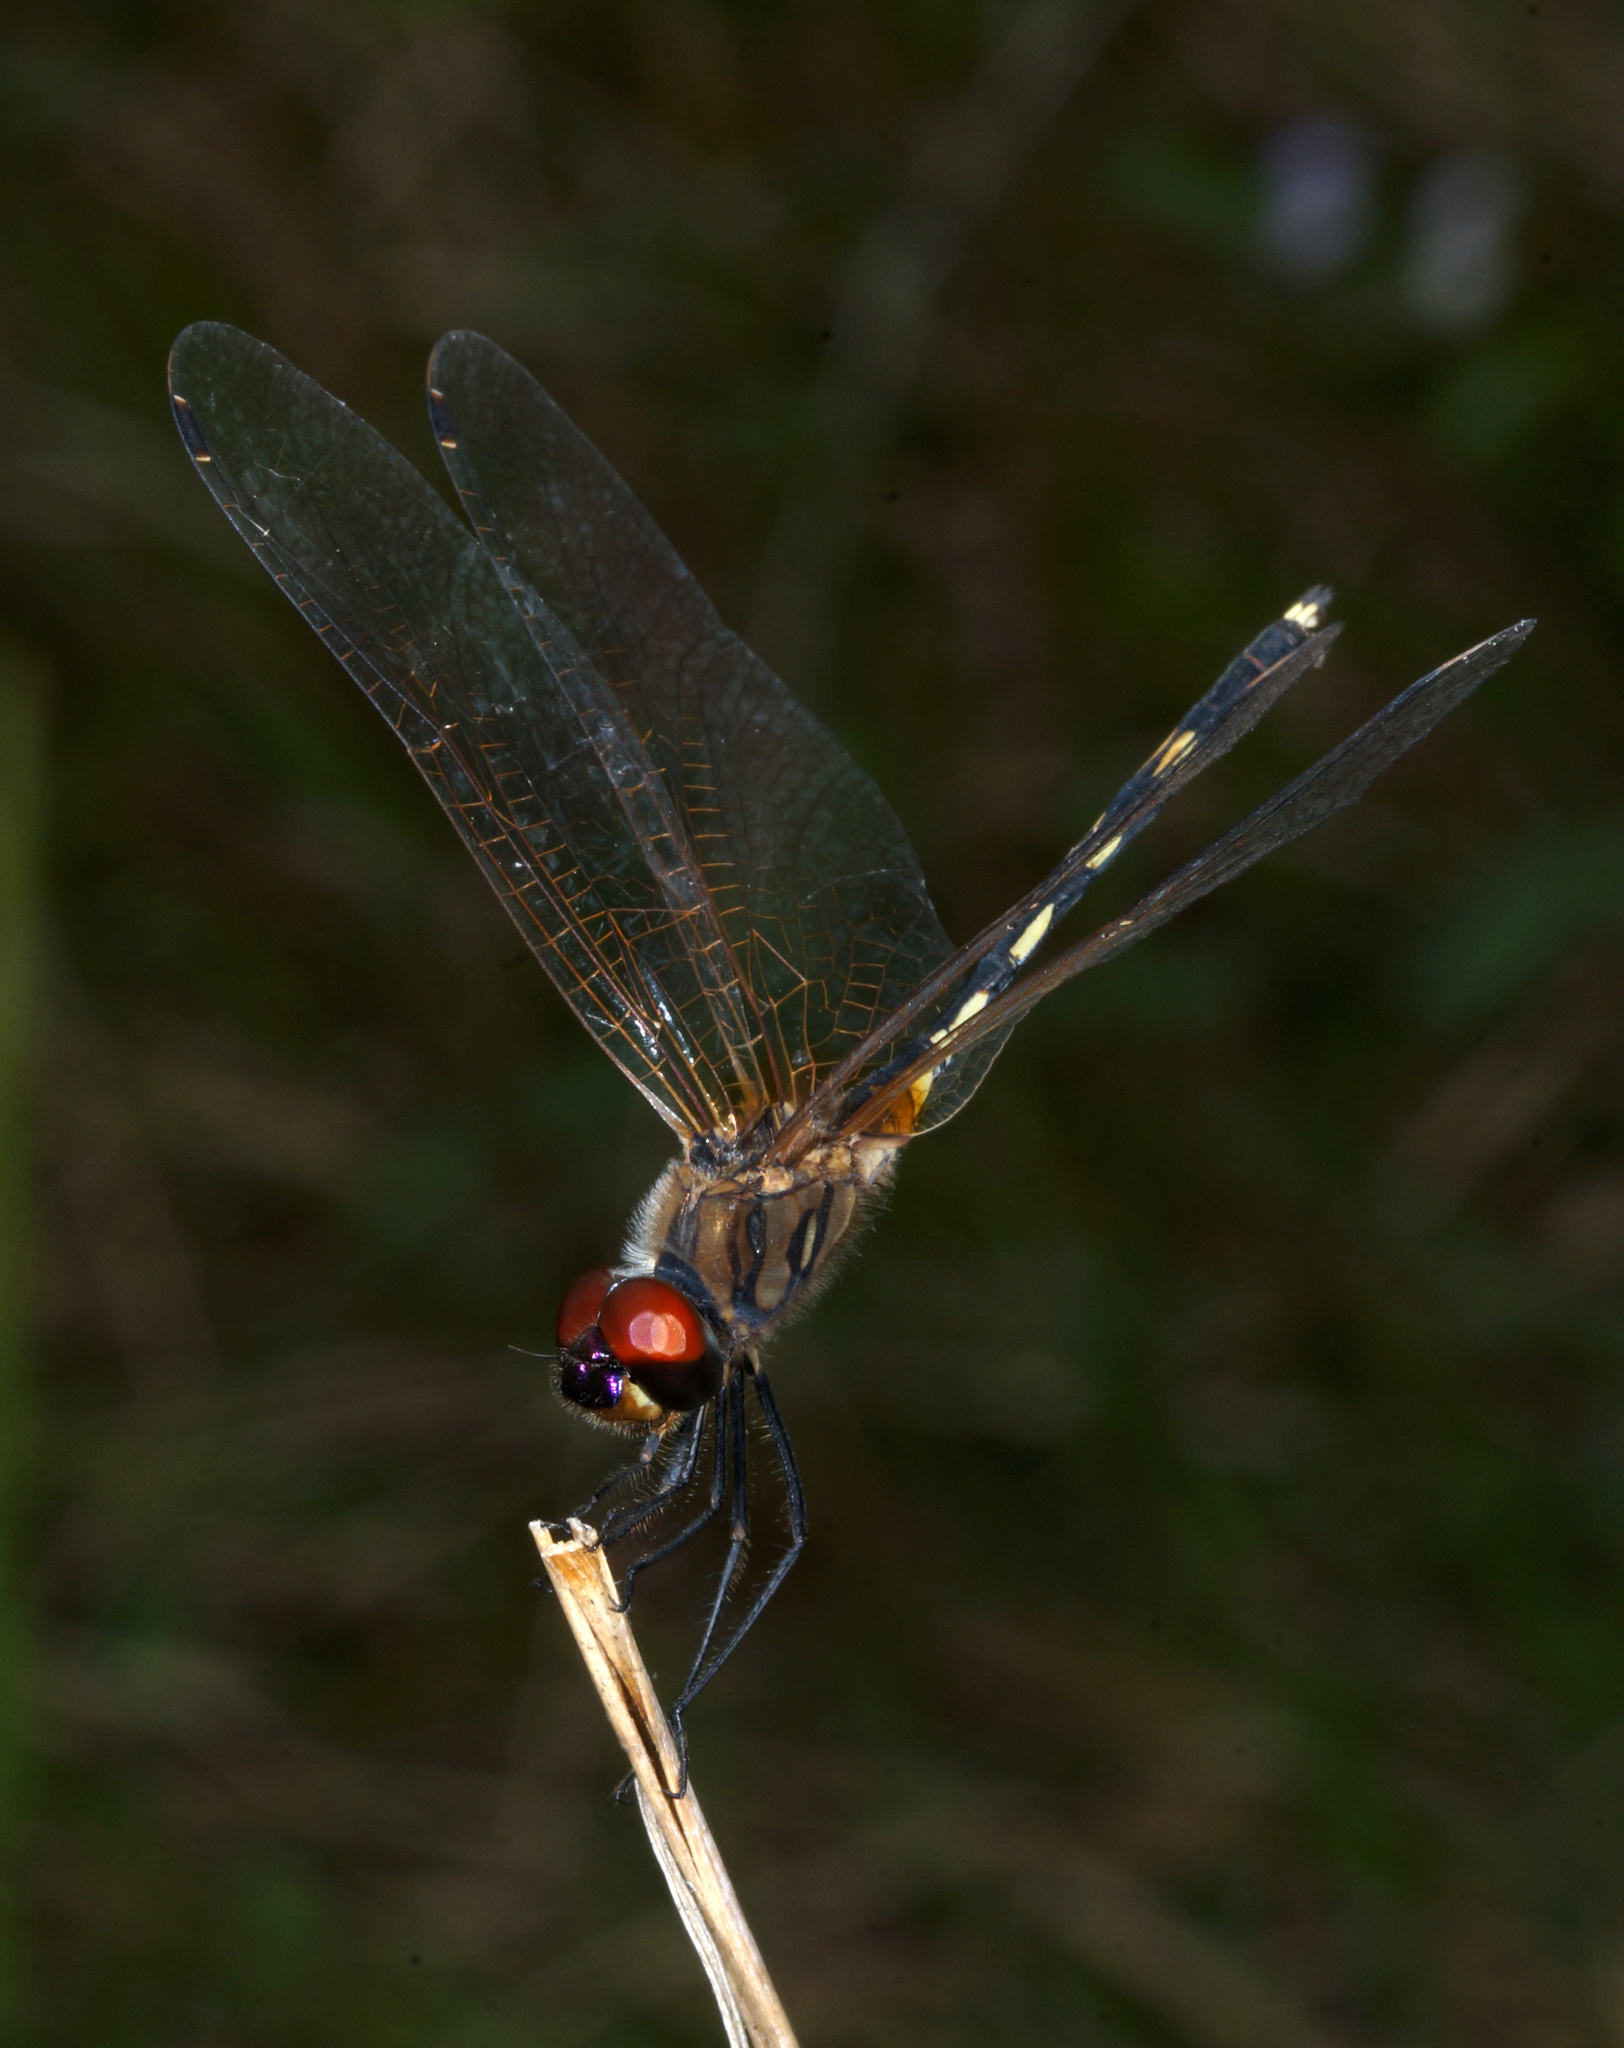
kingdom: Animalia
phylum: Arthropoda
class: Insecta
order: Odonata
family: Libellulidae
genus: Trithemis
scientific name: Trithemis pallidinervis
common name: Dancing dropwing
